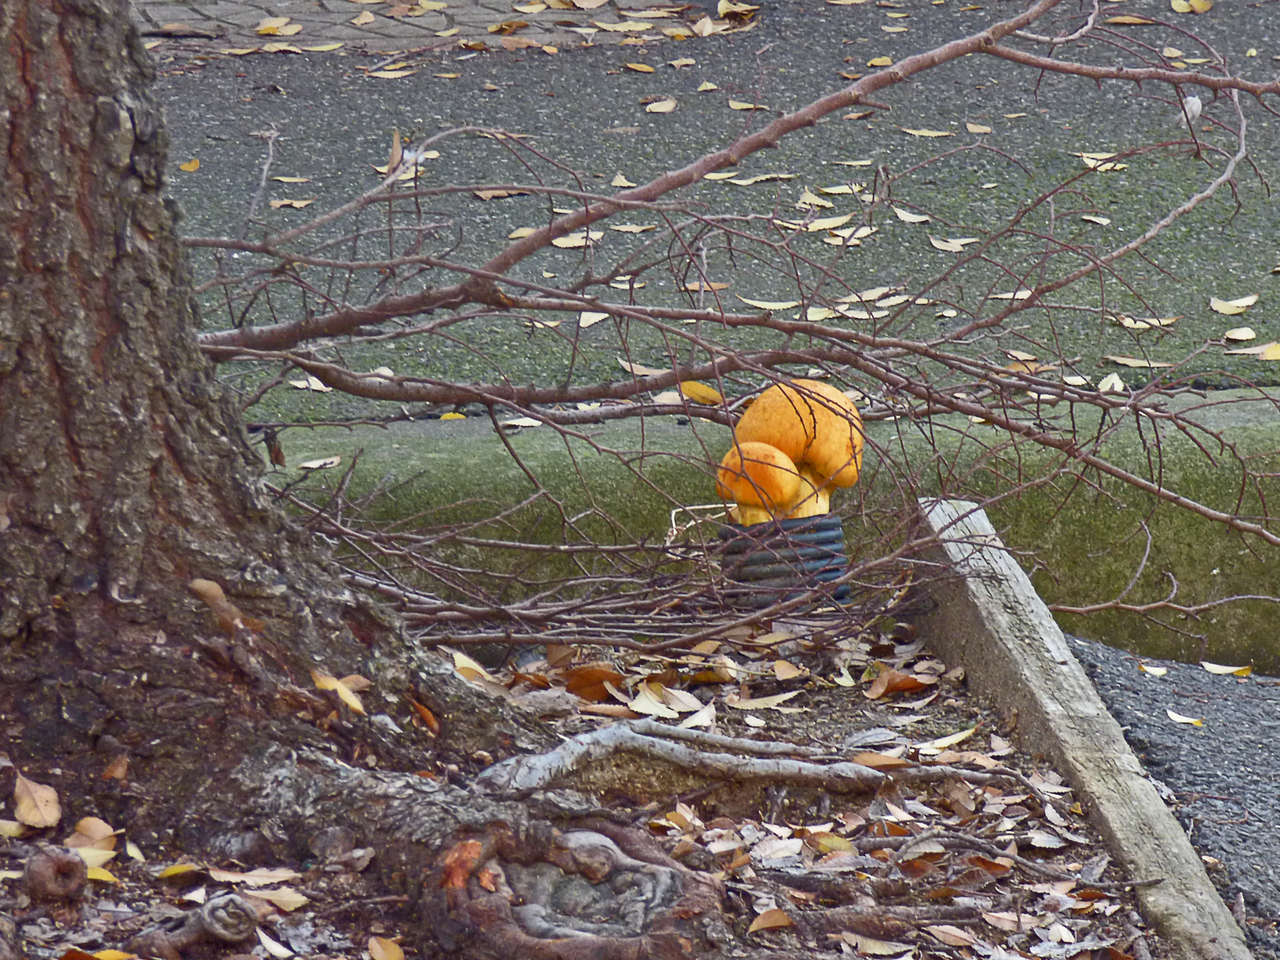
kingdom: Fungi
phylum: Basidiomycota
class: Agaricomycetes
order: Agaricales
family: Hymenogastraceae
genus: Gymnopilus
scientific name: Gymnopilus junonius
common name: Spectacular rustgill
